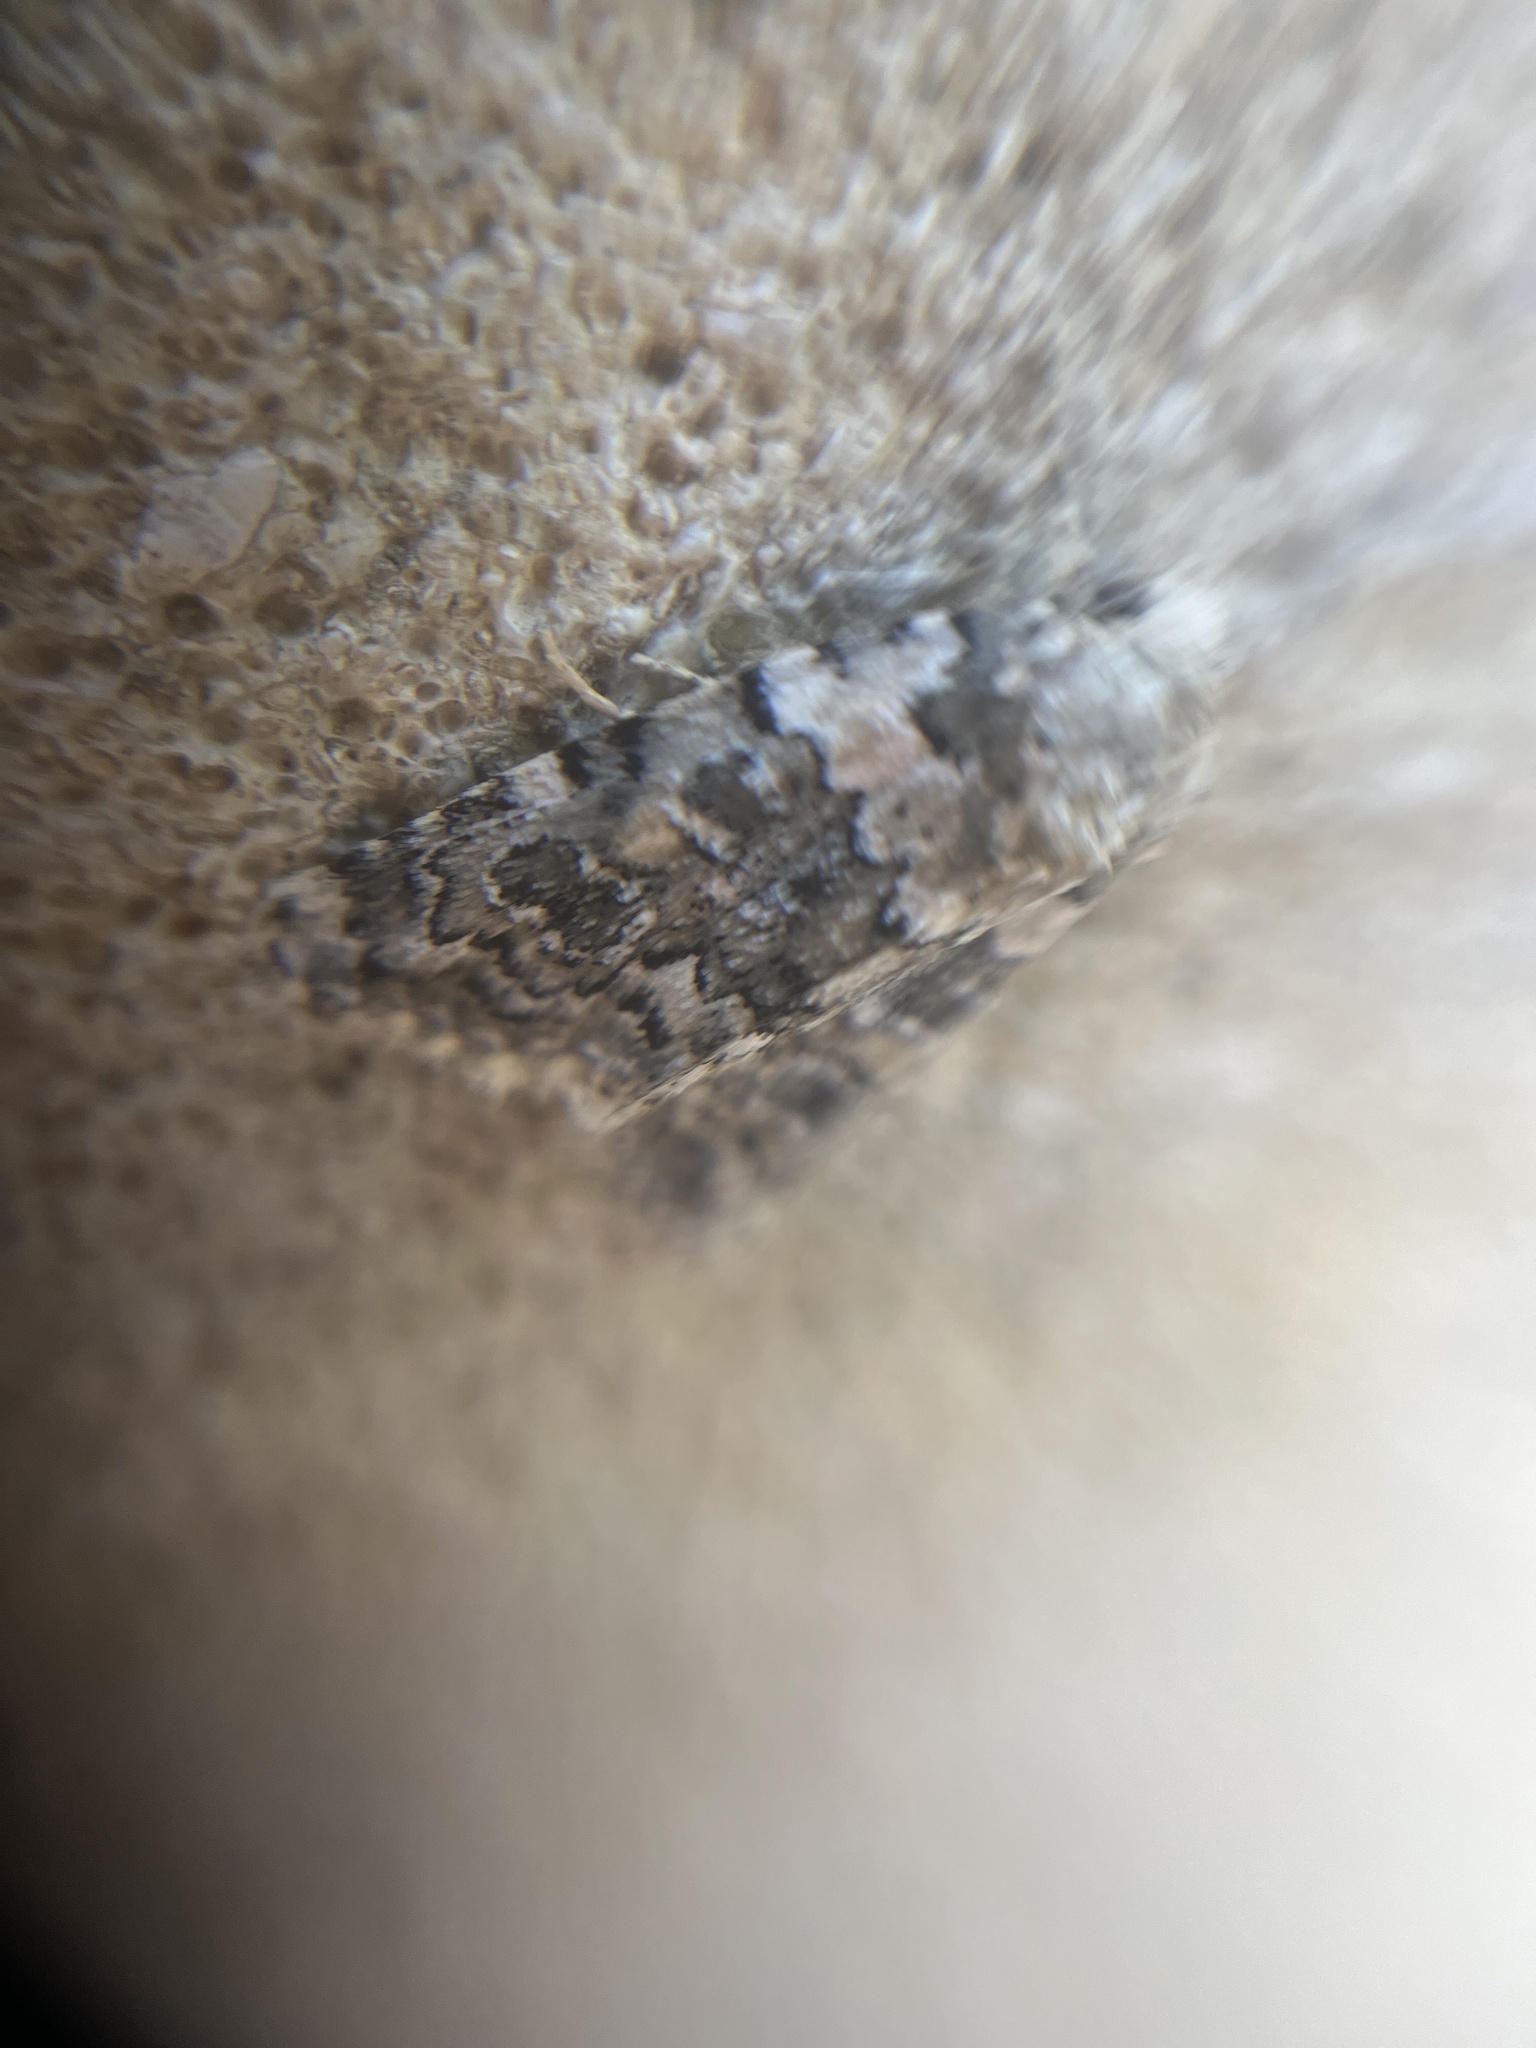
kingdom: Animalia
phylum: Arthropoda
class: Insecta
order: Lepidoptera
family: Noctuidae
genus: Bryophila
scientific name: Bryophila domestica
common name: Marbled beauty
